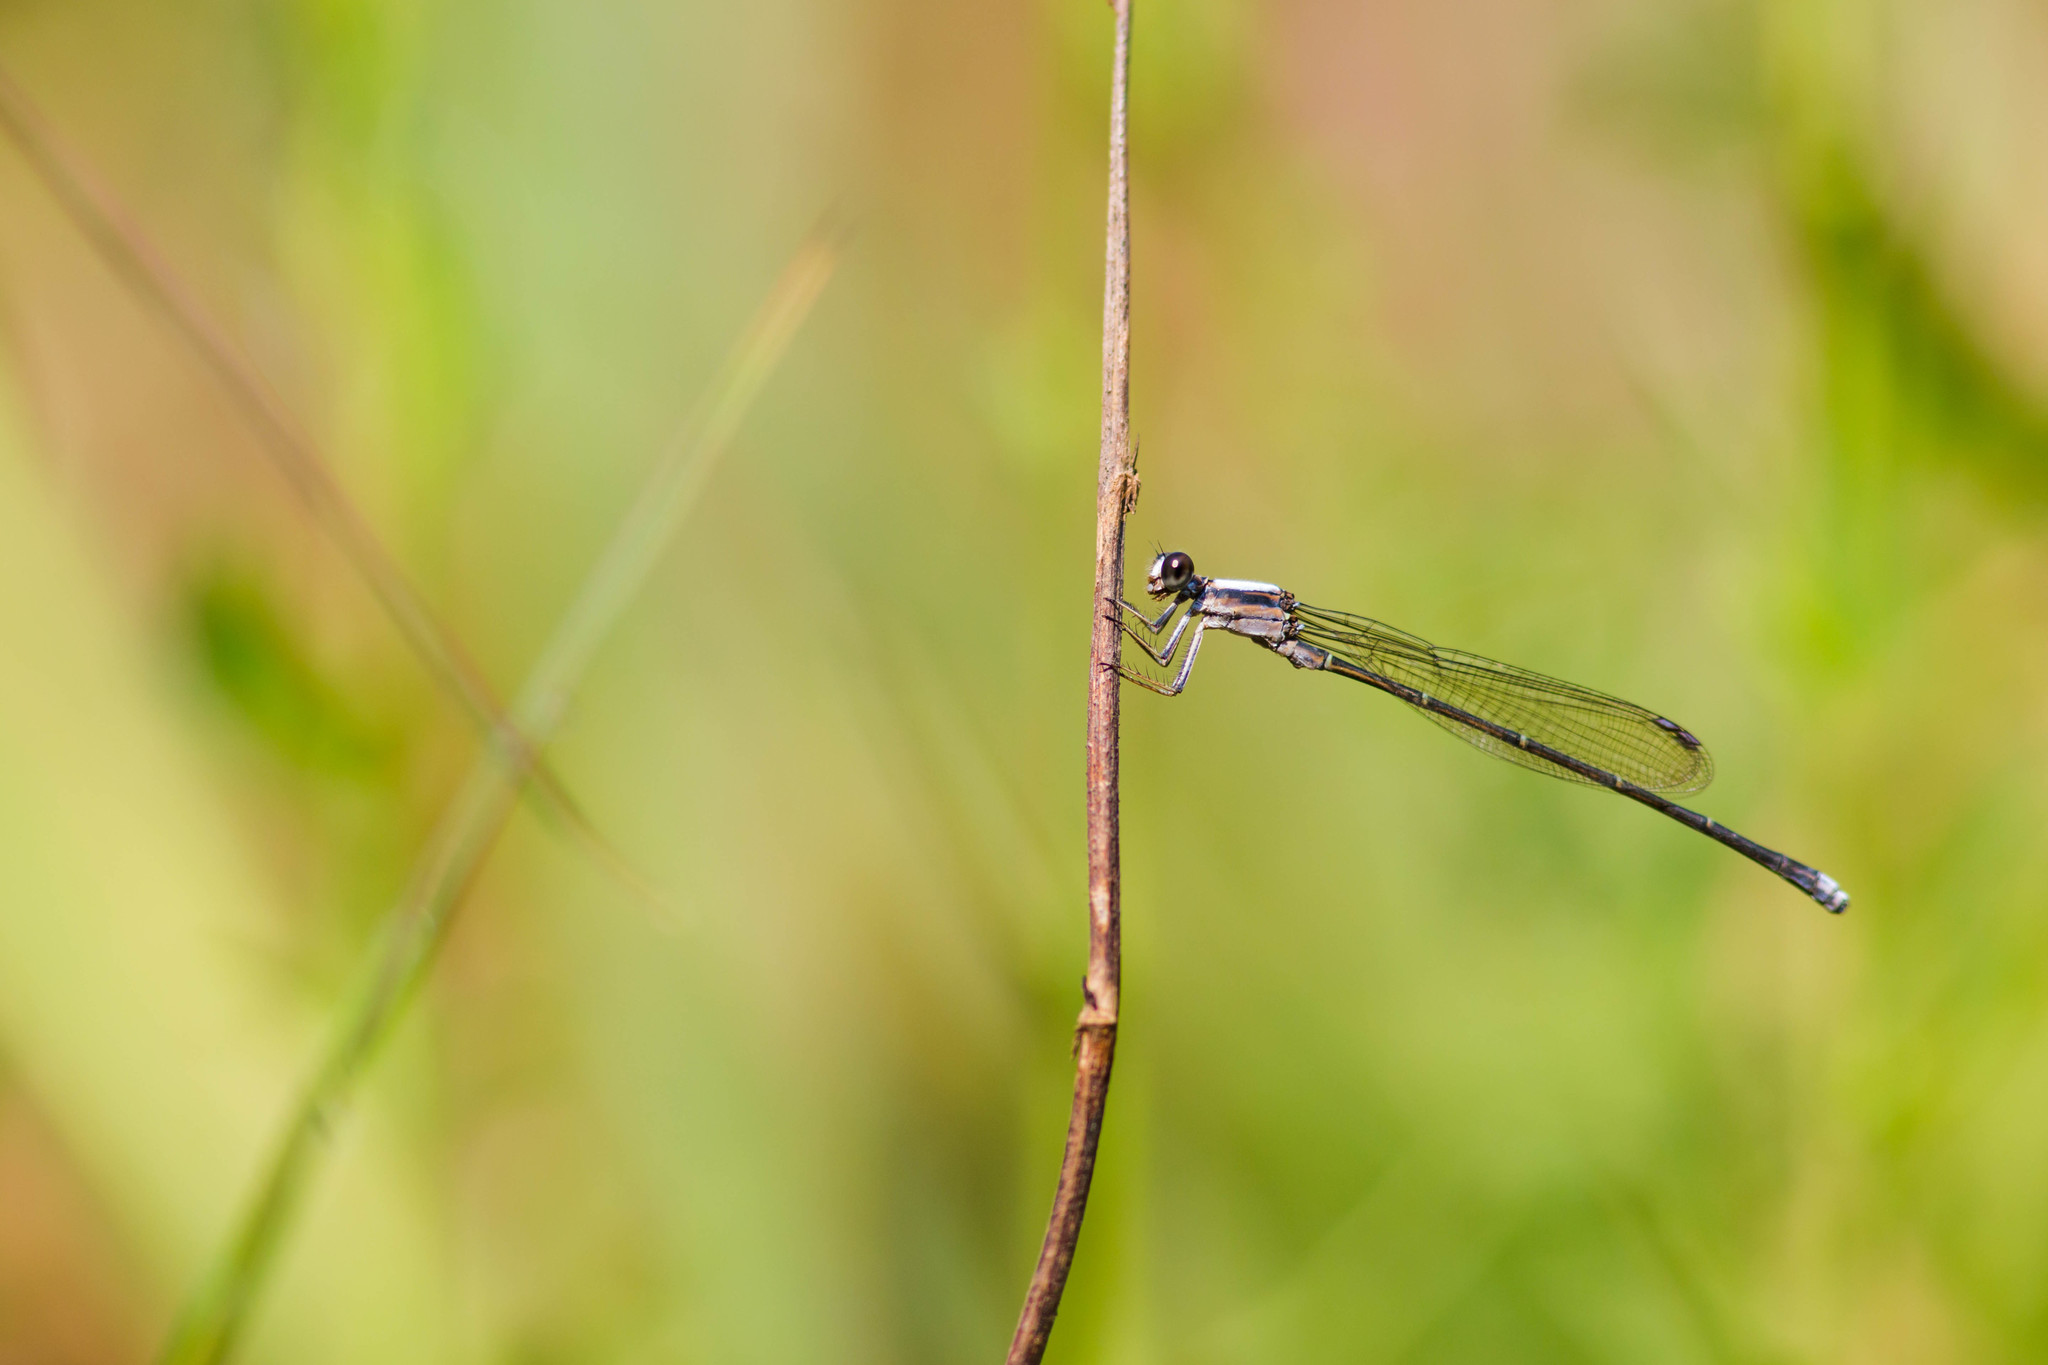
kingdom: Animalia
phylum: Arthropoda
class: Insecta
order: Odonata
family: Coenagrionidae
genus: Argia
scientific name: Argia moesta
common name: Powdered dancer
